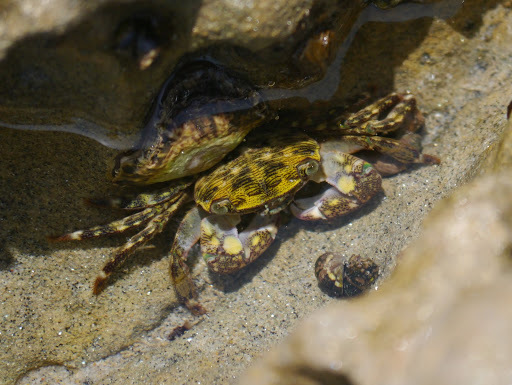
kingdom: Animalia
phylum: Arthropoda
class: Malacostraca
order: Decapoda
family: Grapsidae
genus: Pachygrapsus
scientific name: Pachygrapsus crassipes
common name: Striped shore crab
